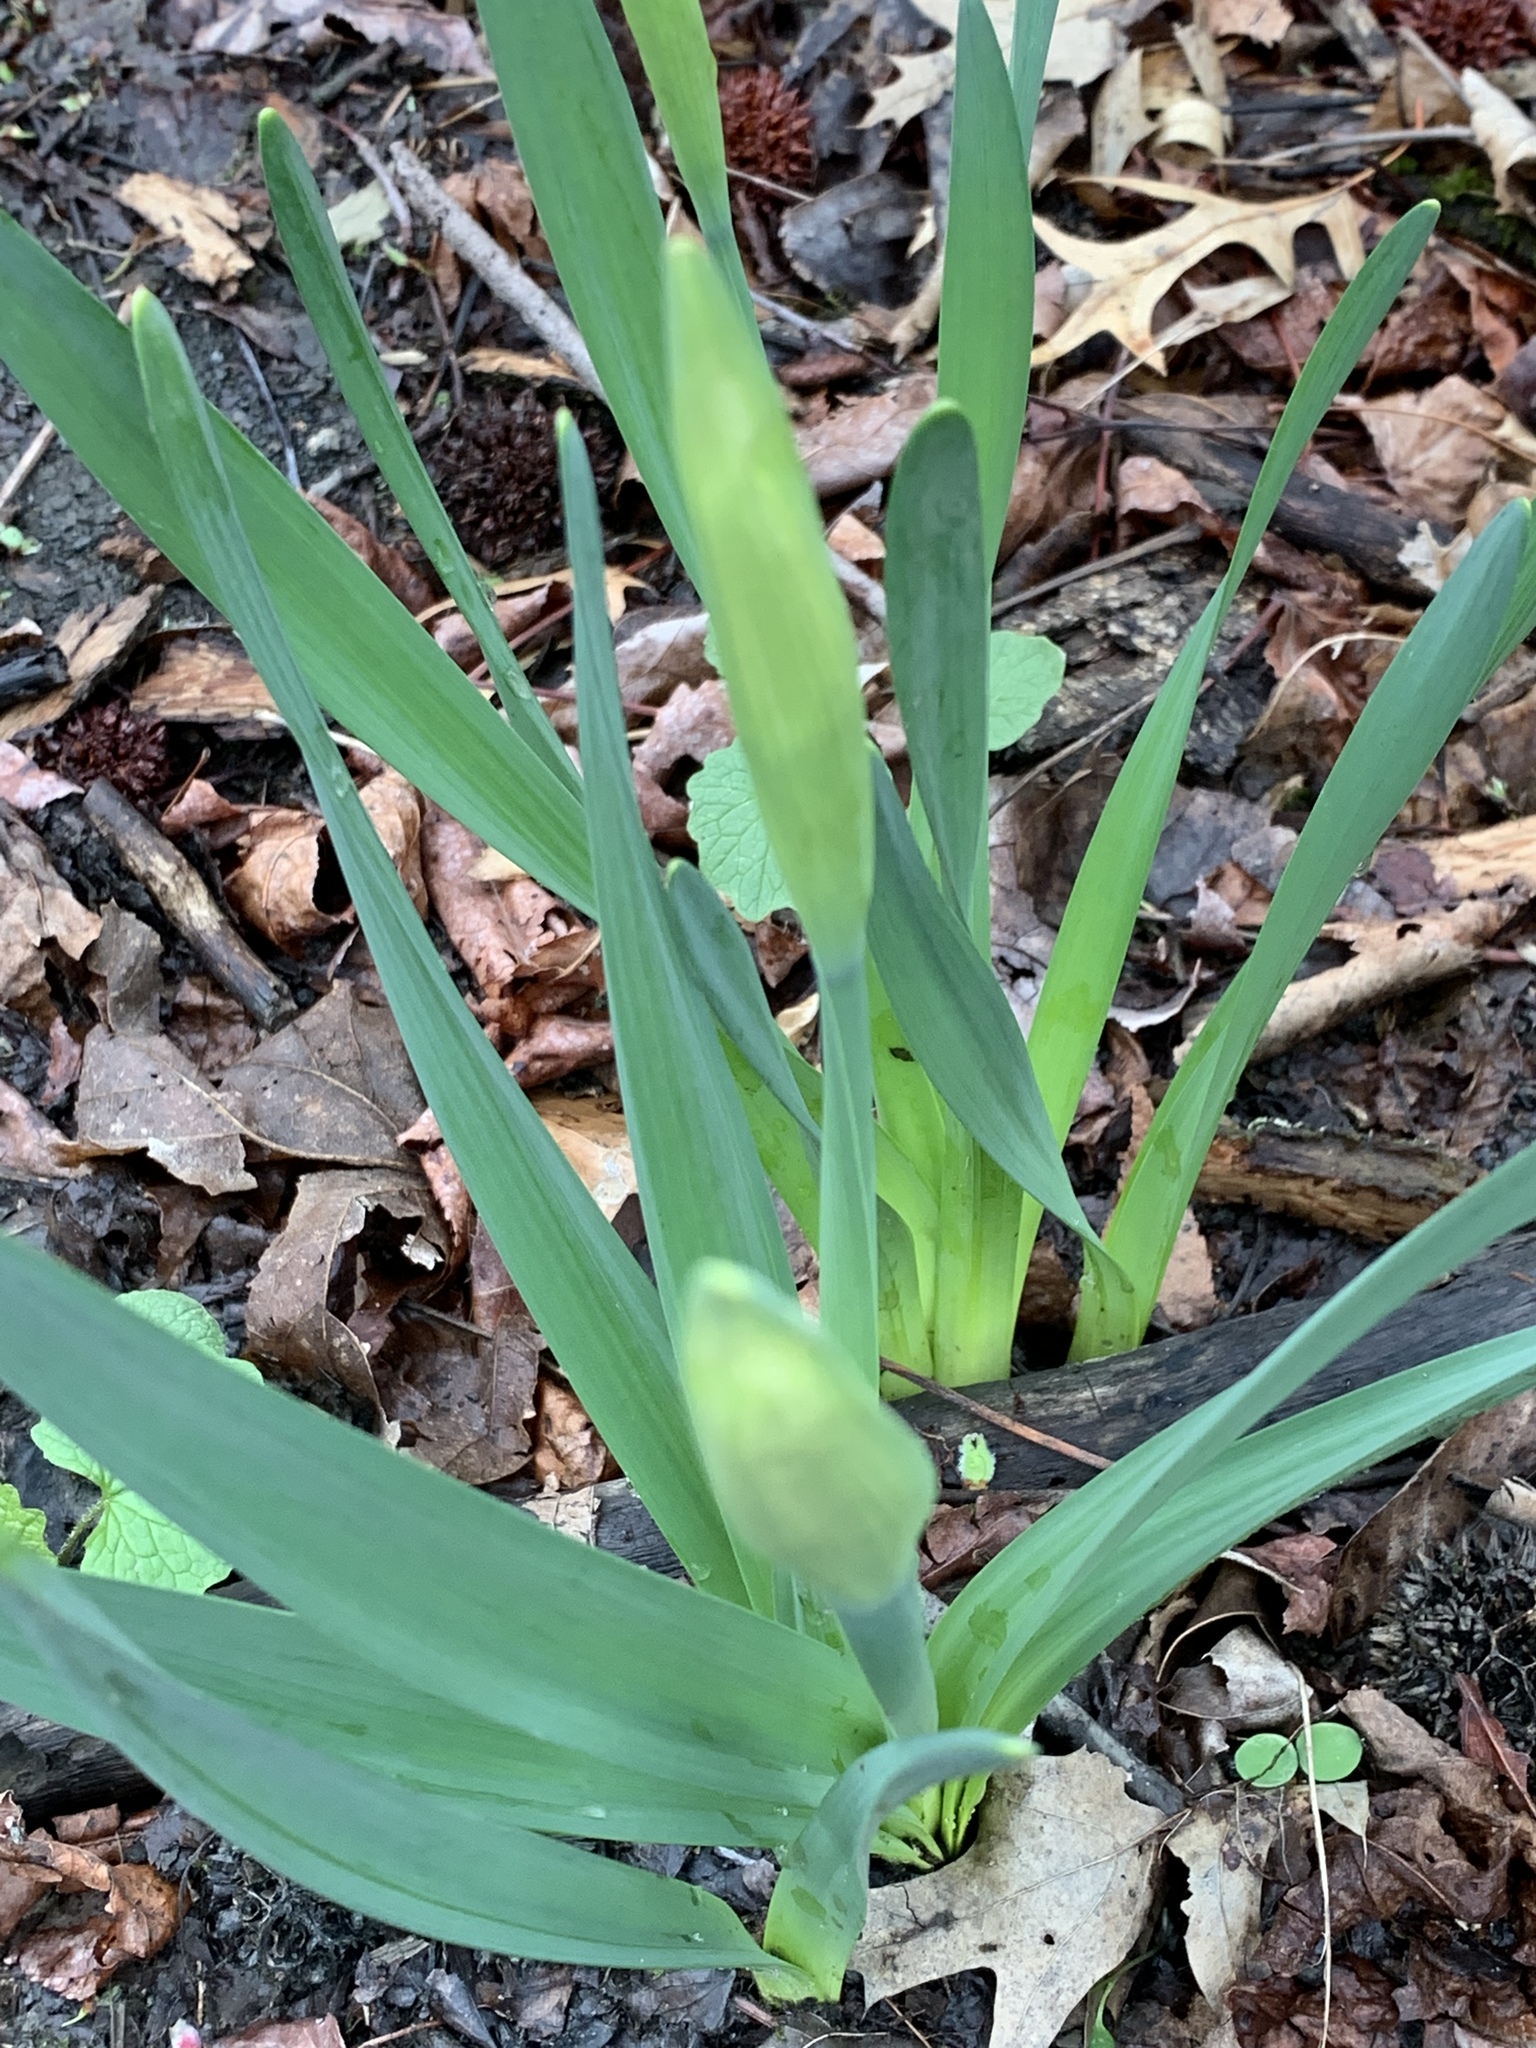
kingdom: Plantae
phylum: Tracheophyta
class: Liliopsida
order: Asparagales
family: Amaryllidaceae
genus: Narcissus
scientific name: Narcissus
